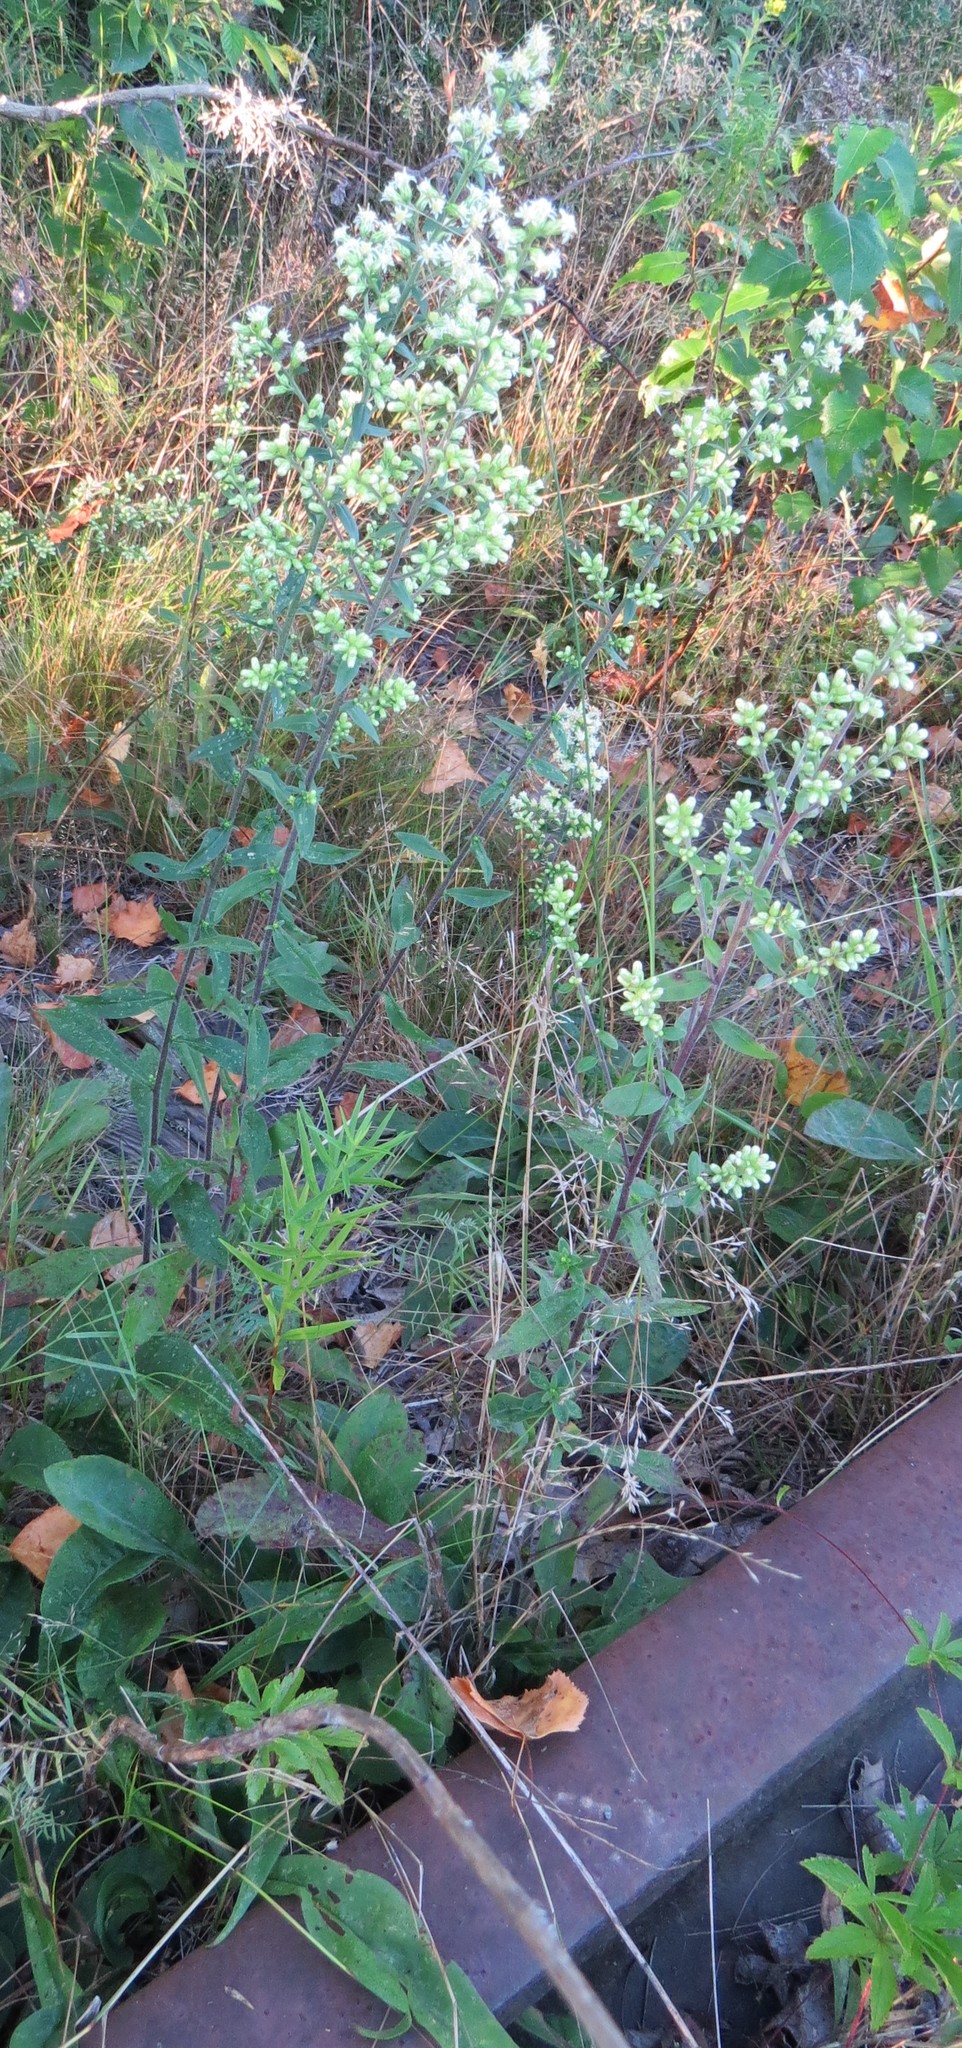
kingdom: Plantae
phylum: Tracheophyta
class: Magnoliopsida
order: Asterales
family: Asteraceae
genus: Solidago
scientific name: Solidago bicolor
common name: Silverrod
